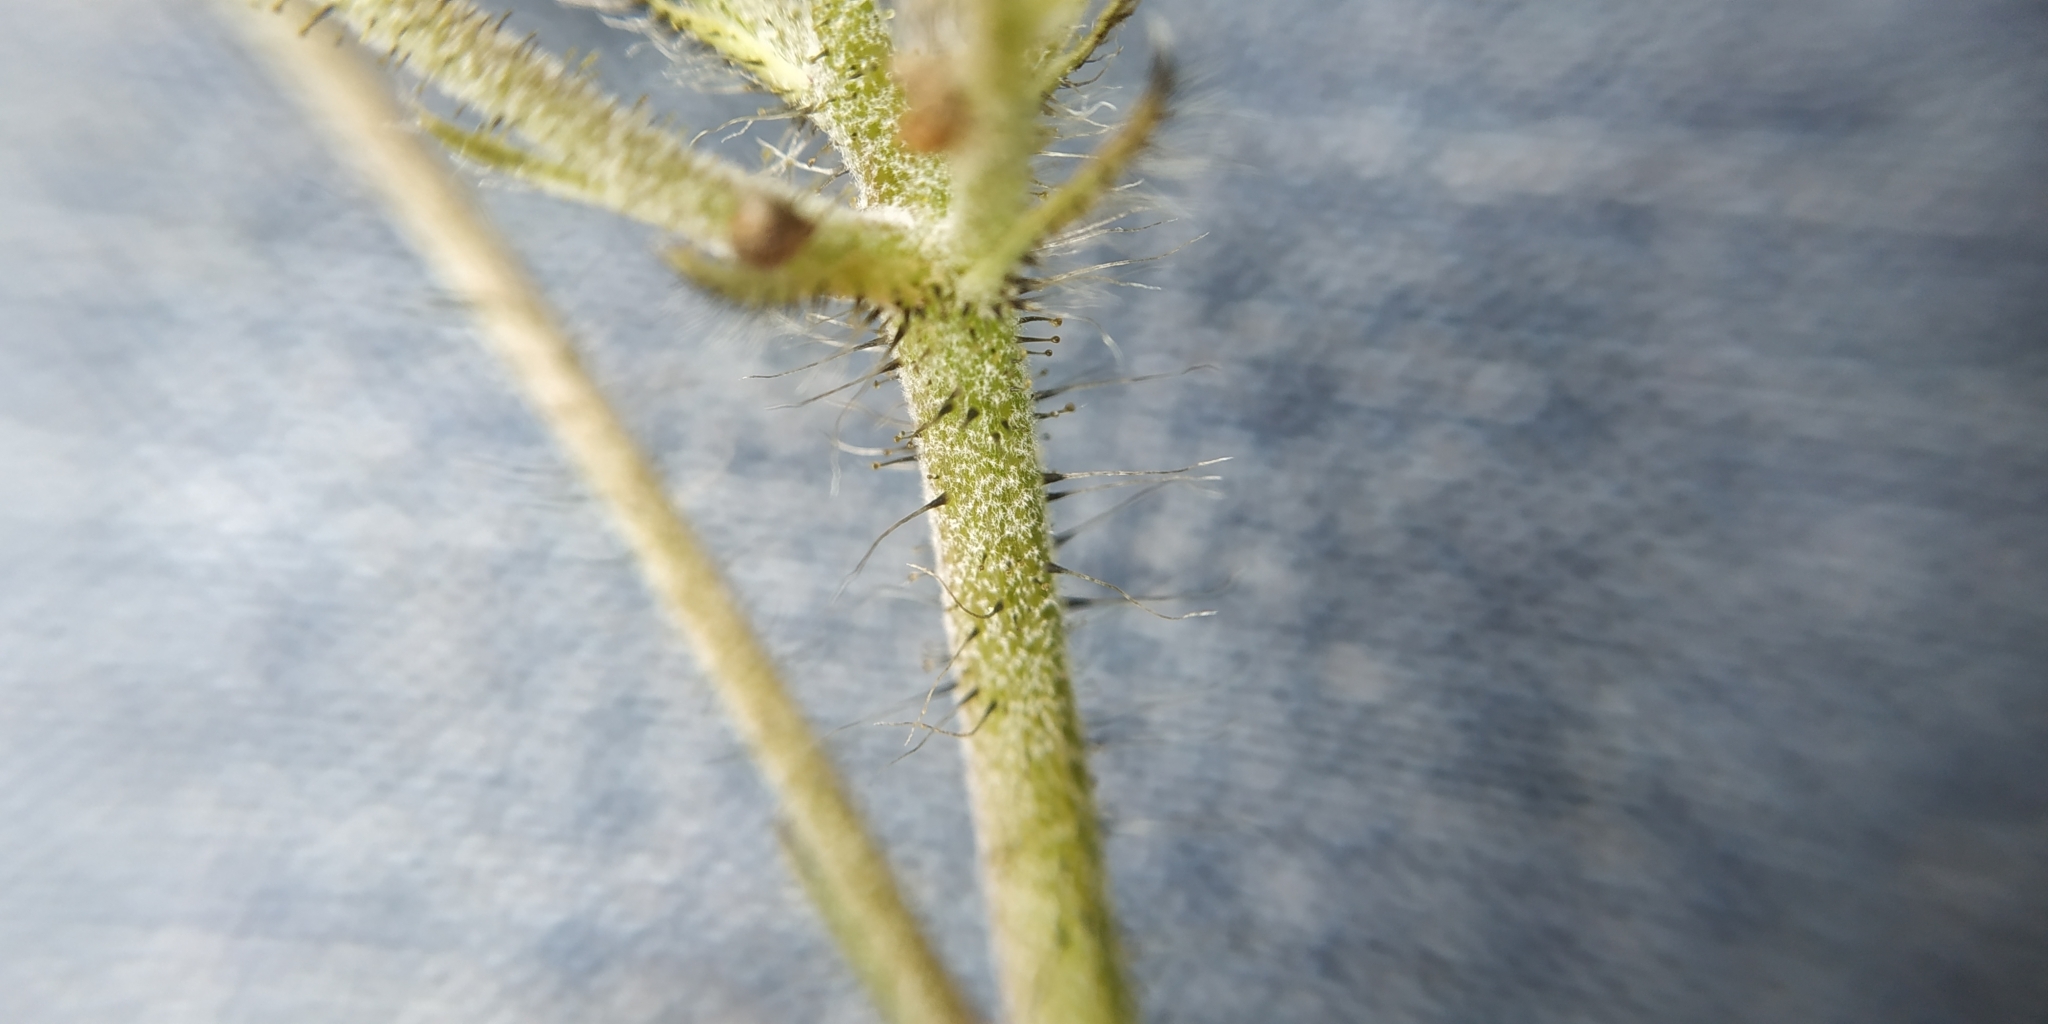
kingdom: Plantae
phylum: Tracheophyta
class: Magnoliopsida
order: Asterales
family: Asteraceae
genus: Pilosella
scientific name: Pilosella onegensis
